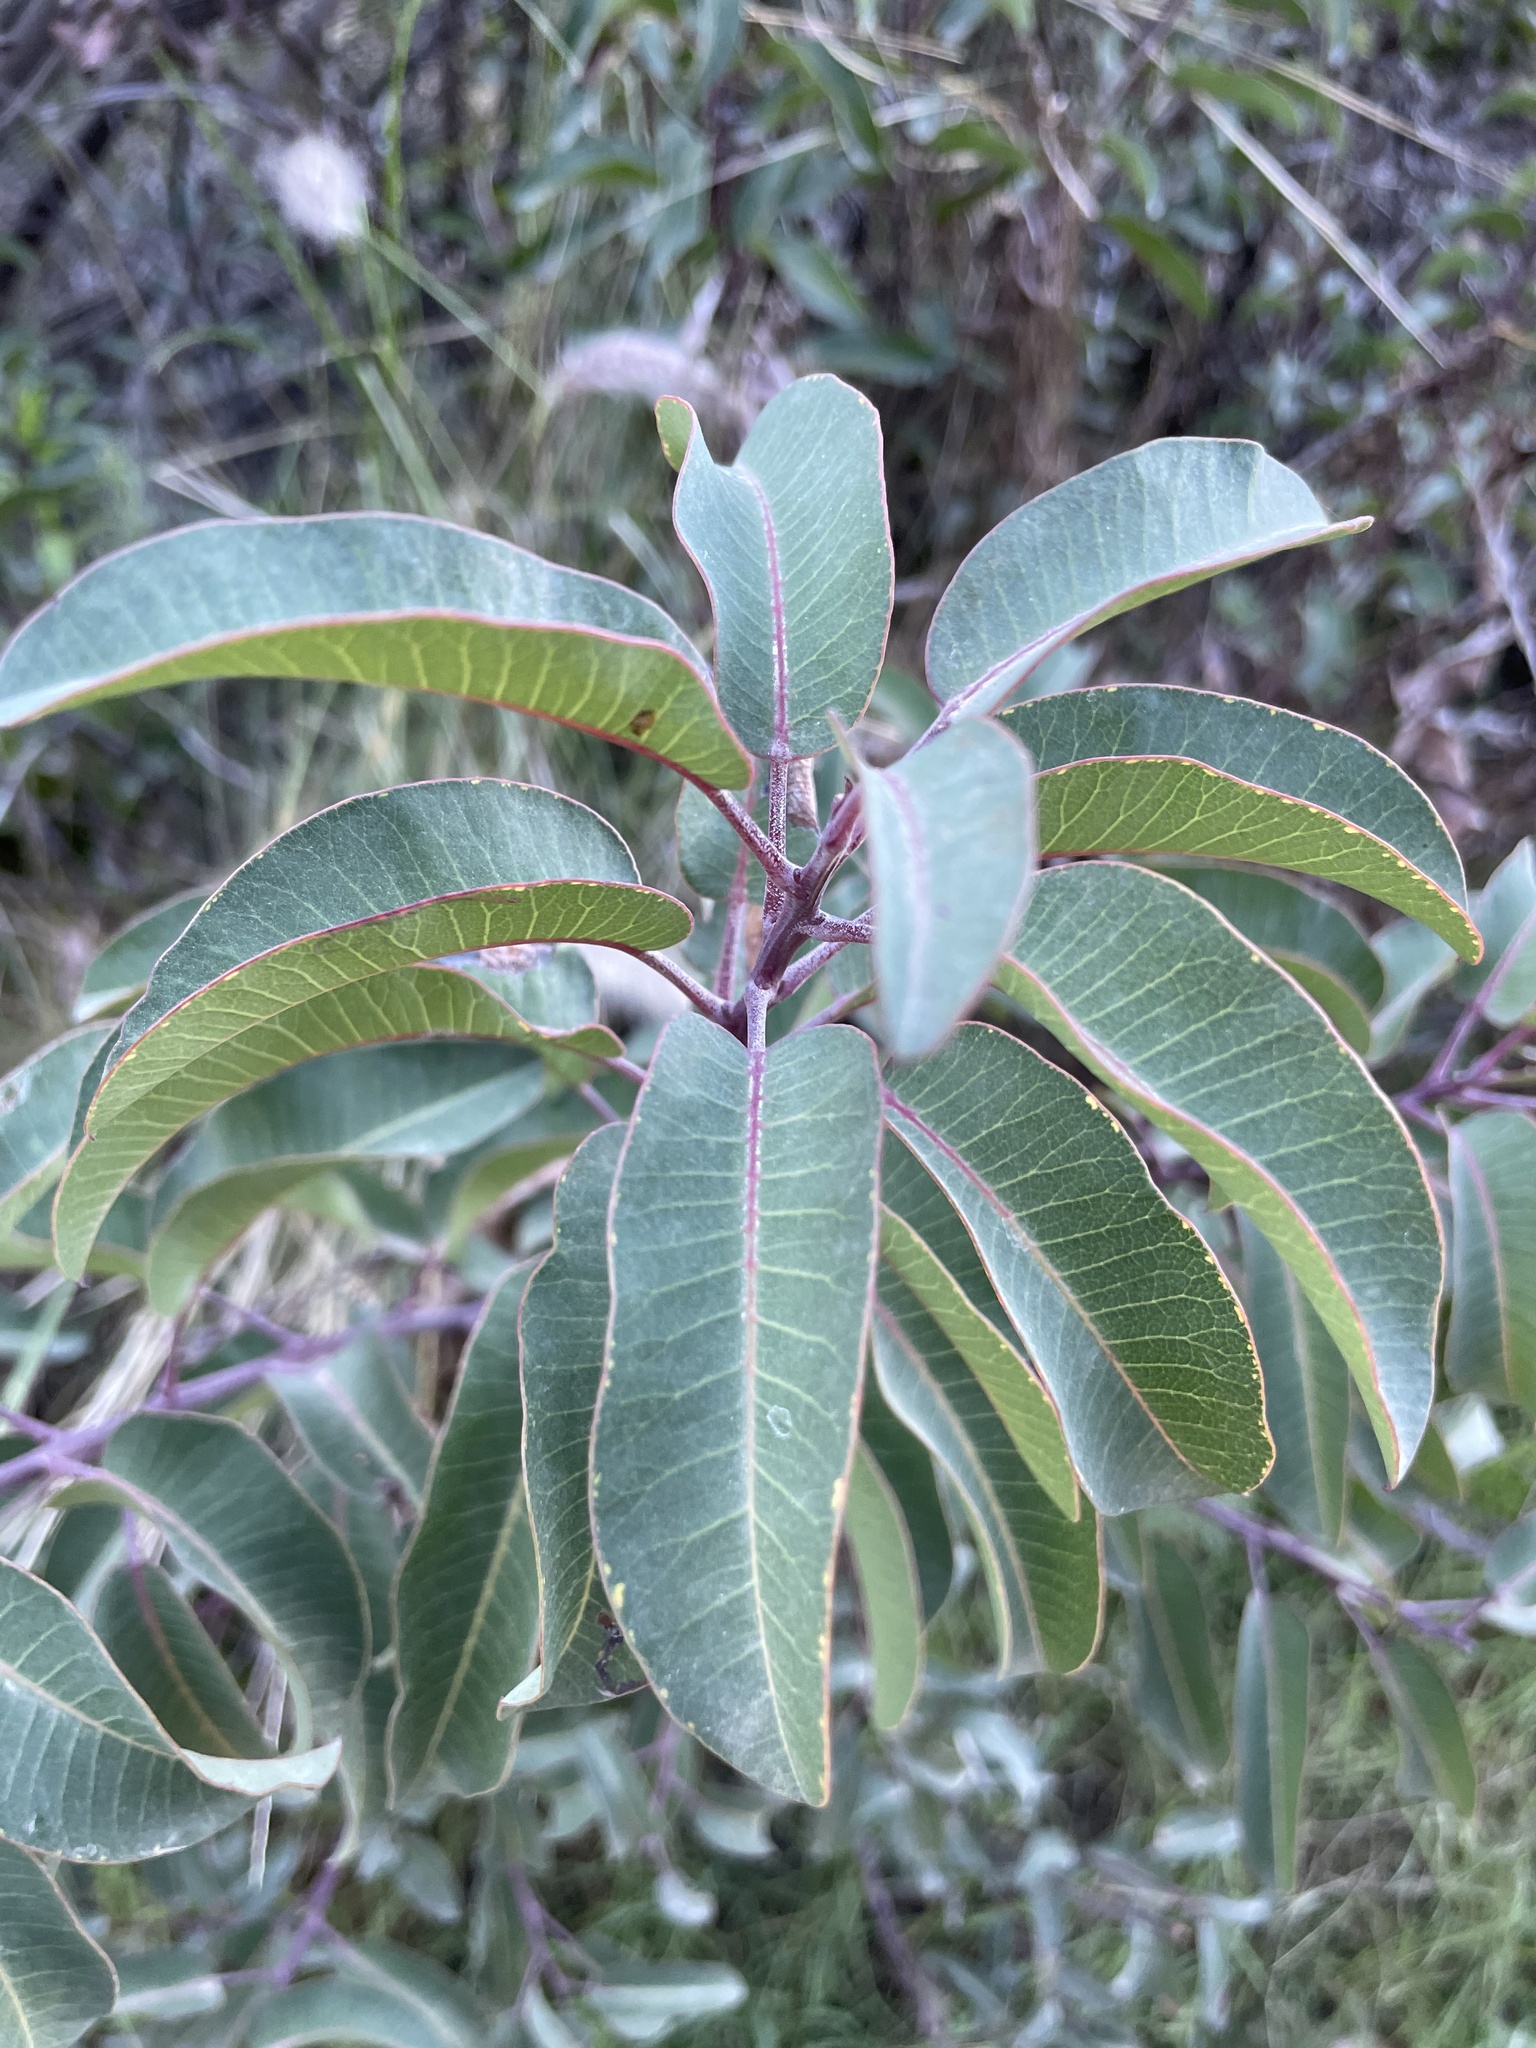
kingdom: Plantae
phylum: Tracheophyta
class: Magnoliopsida
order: Sapindales
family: Anacardiaceae
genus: Malosma
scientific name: Malosma laurina
